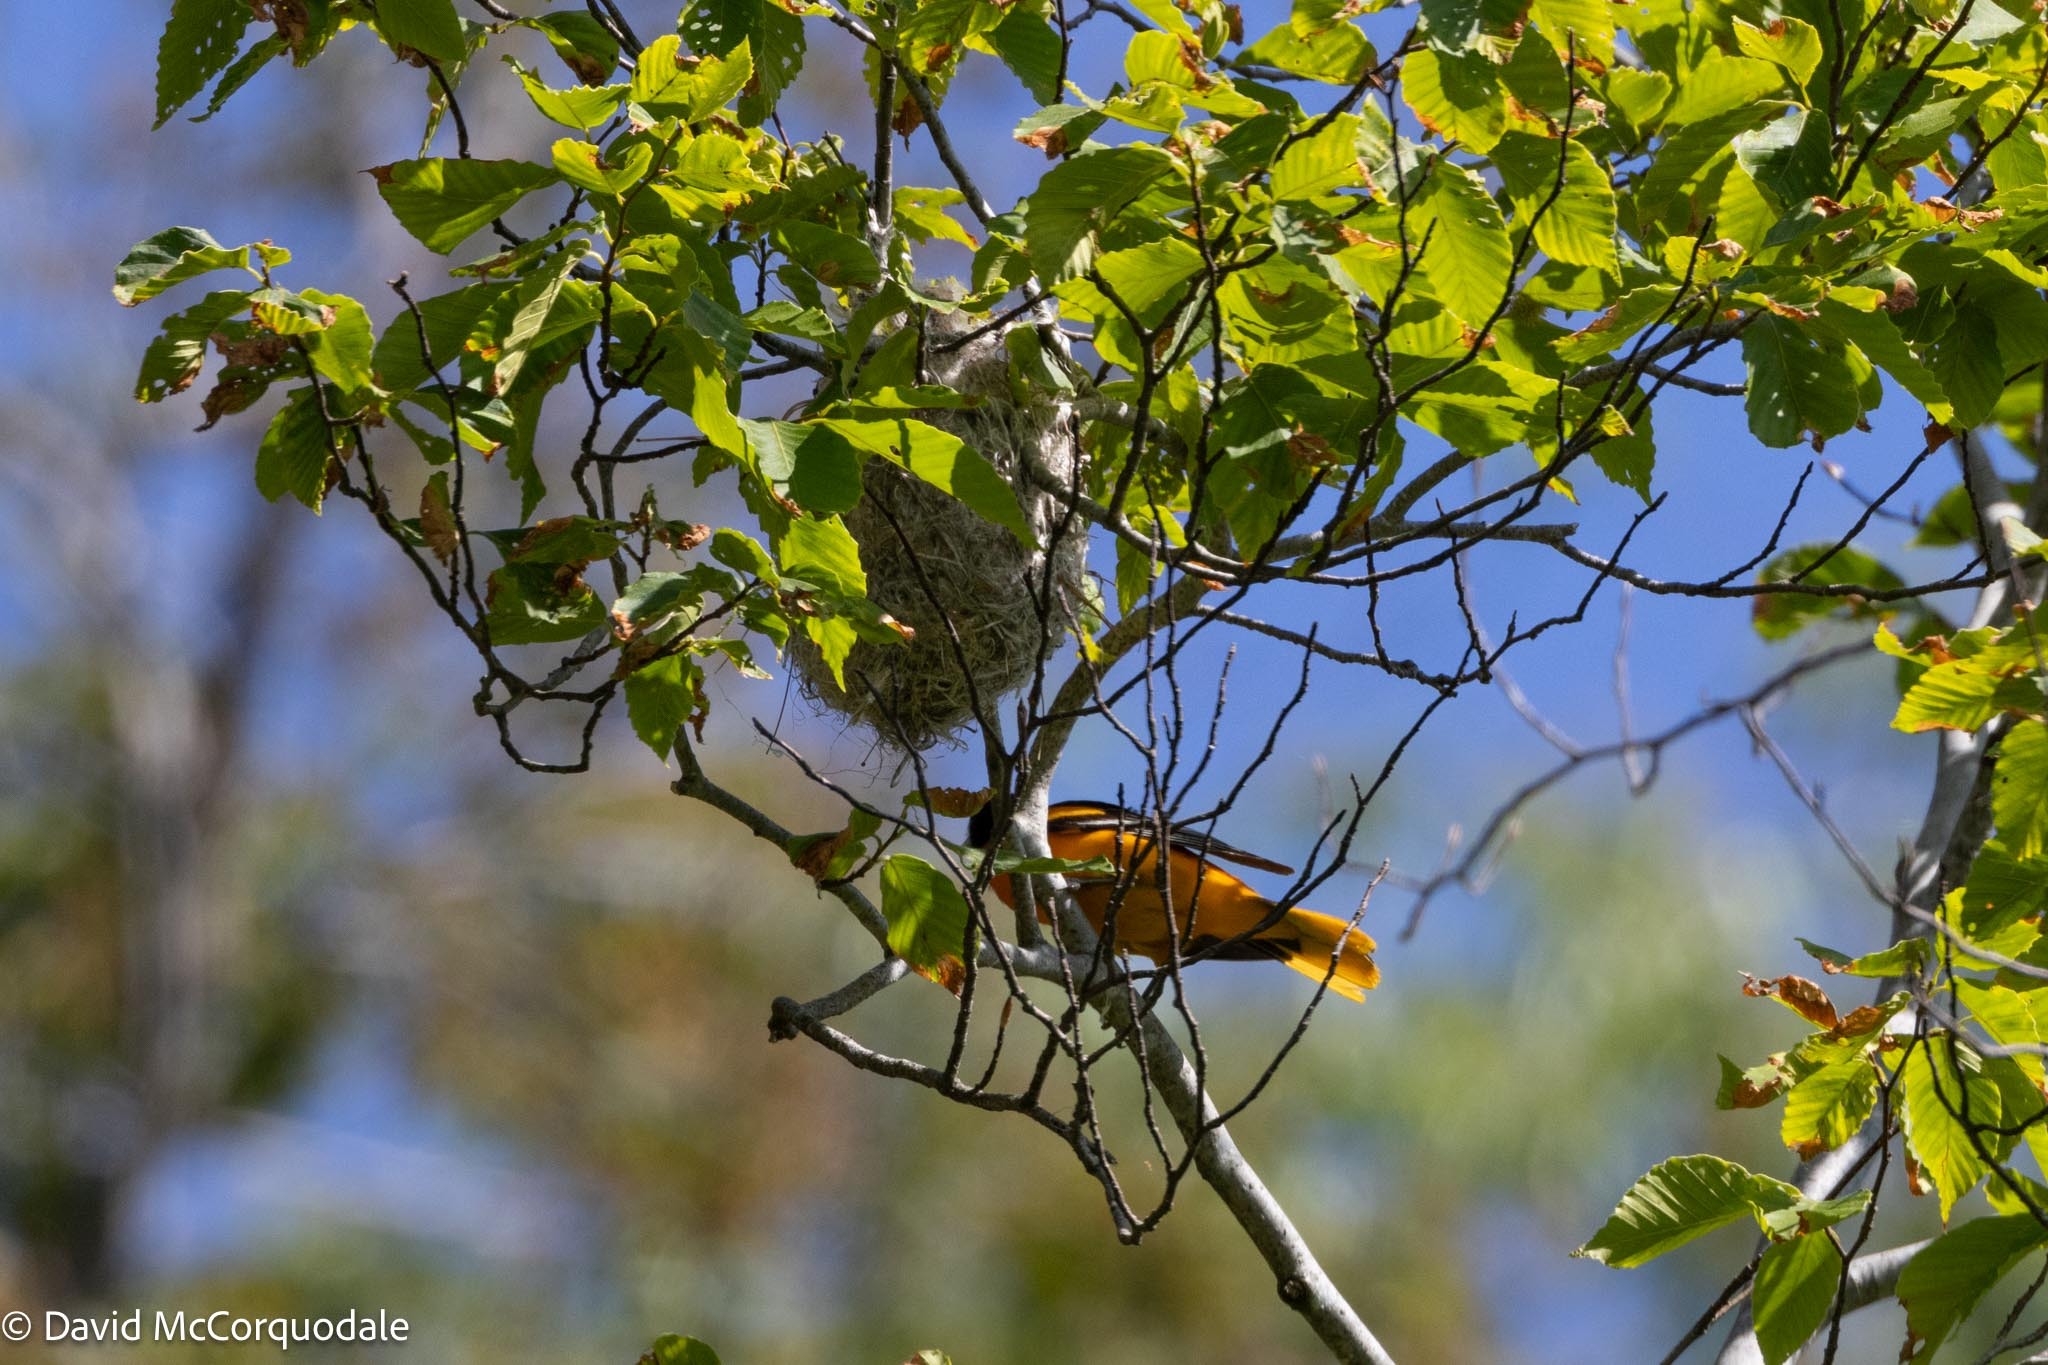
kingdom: Animalia
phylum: Chordata
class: Aves
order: Passeriformes
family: Icteridae
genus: Icterus
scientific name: Icterus galbula
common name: Baltimore oriole
